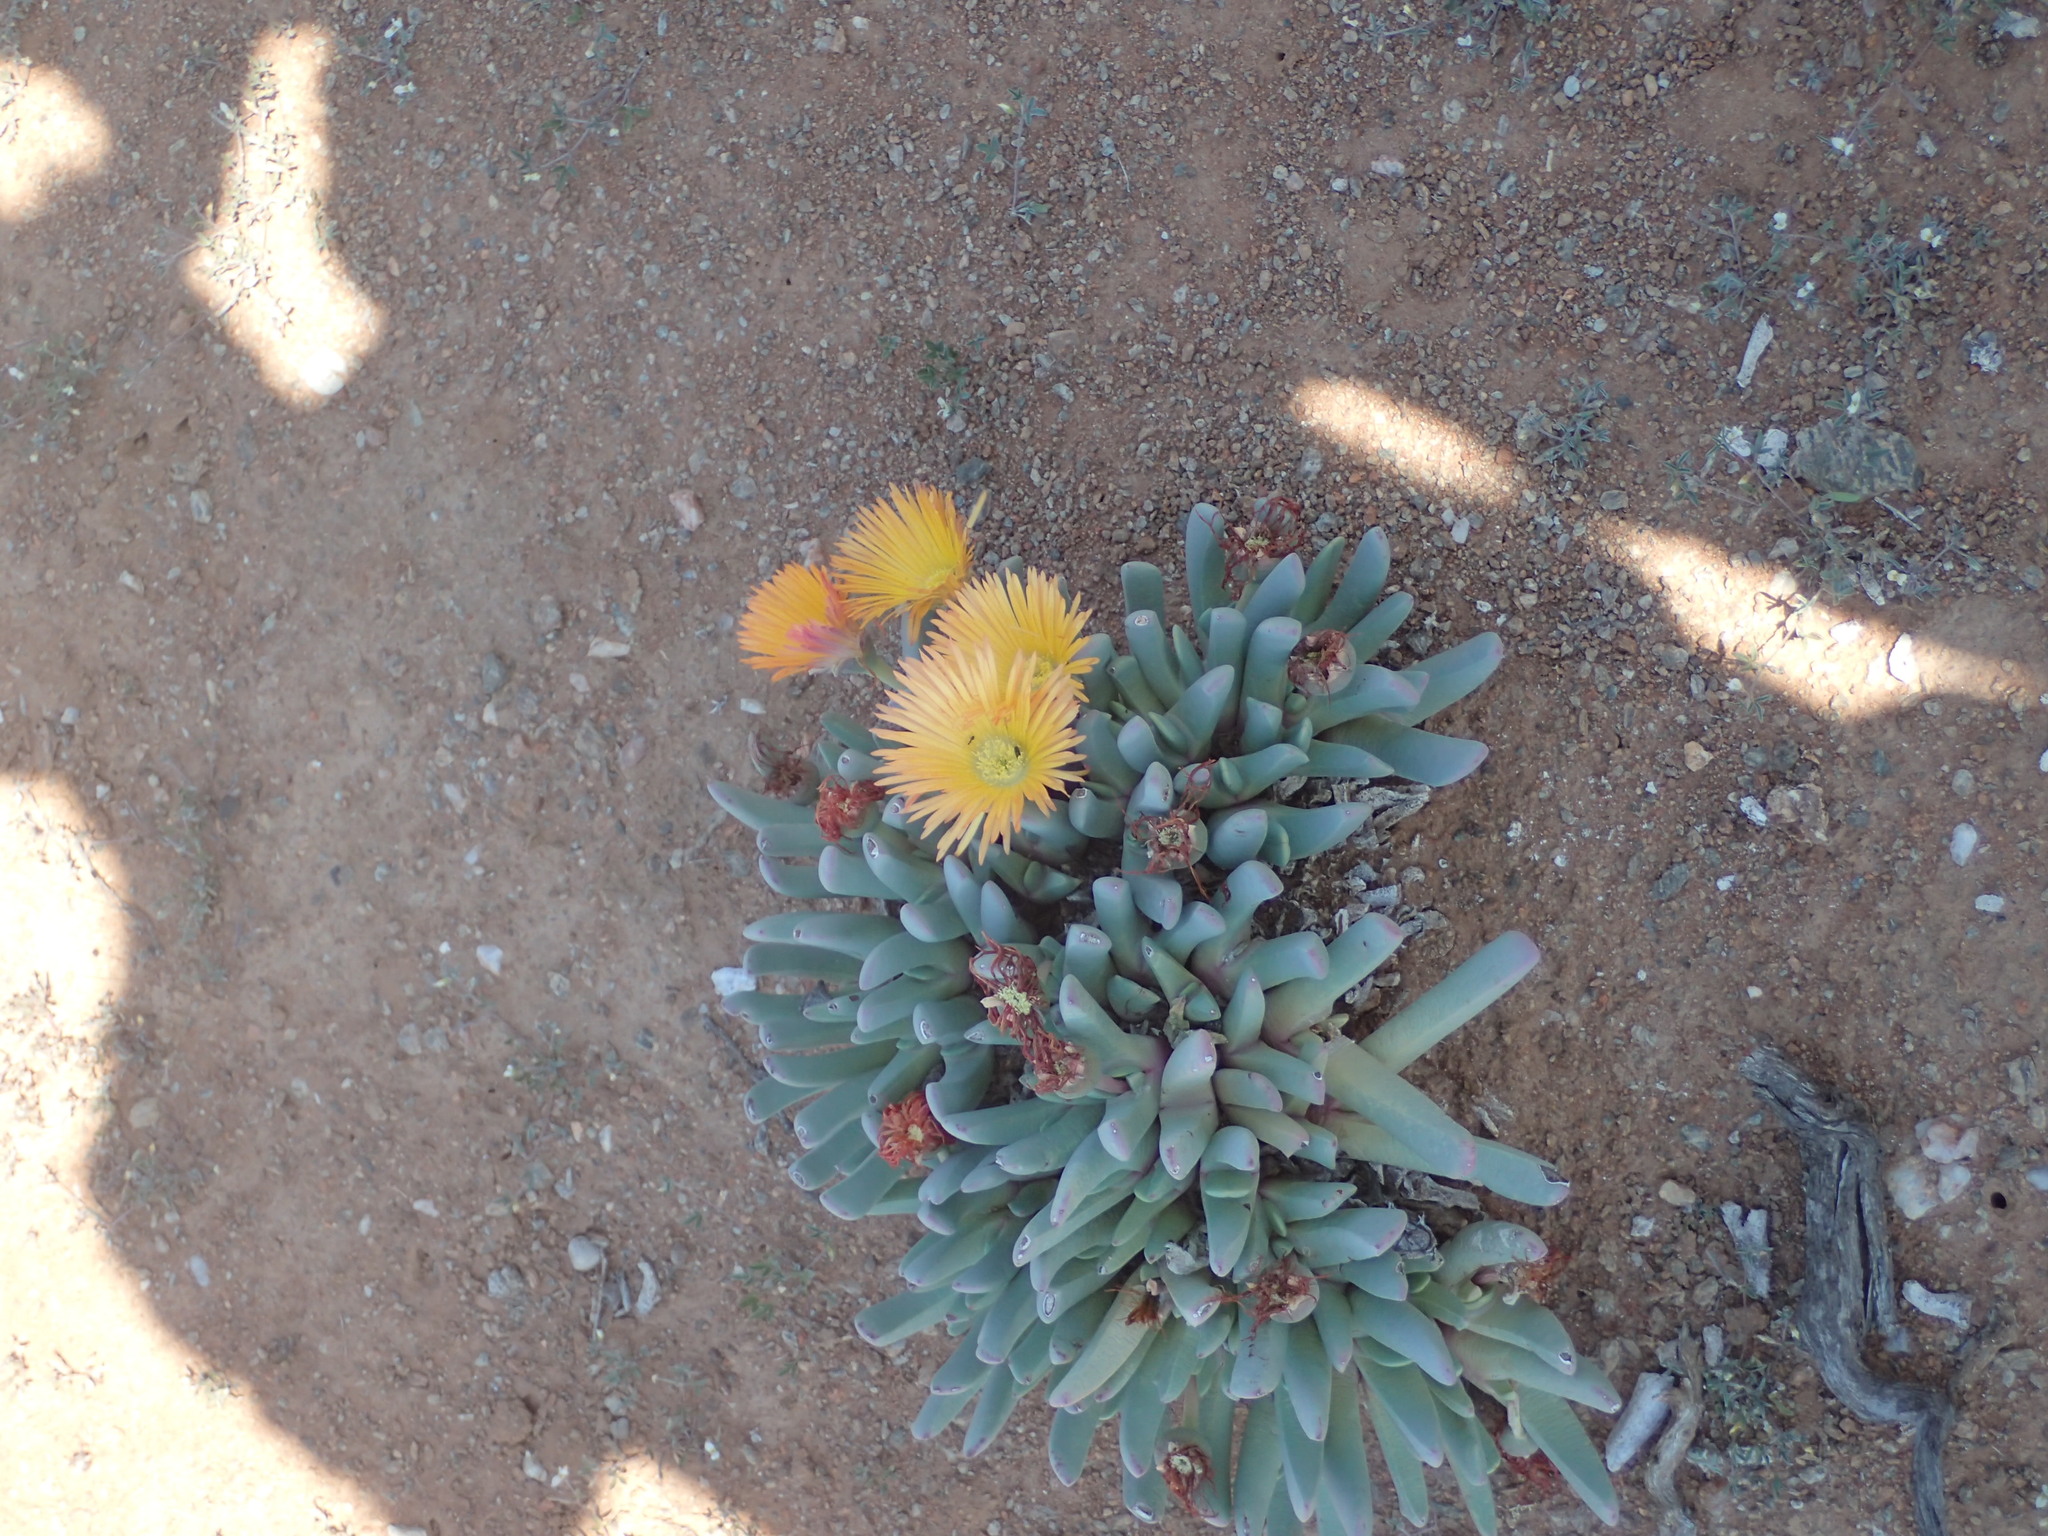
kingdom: Plantae
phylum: Tracheophyta
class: Magnoliopsida
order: Caryophyllales
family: Aizoaceae
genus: Cheiridopsis
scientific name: Cheiridopsis robusta
